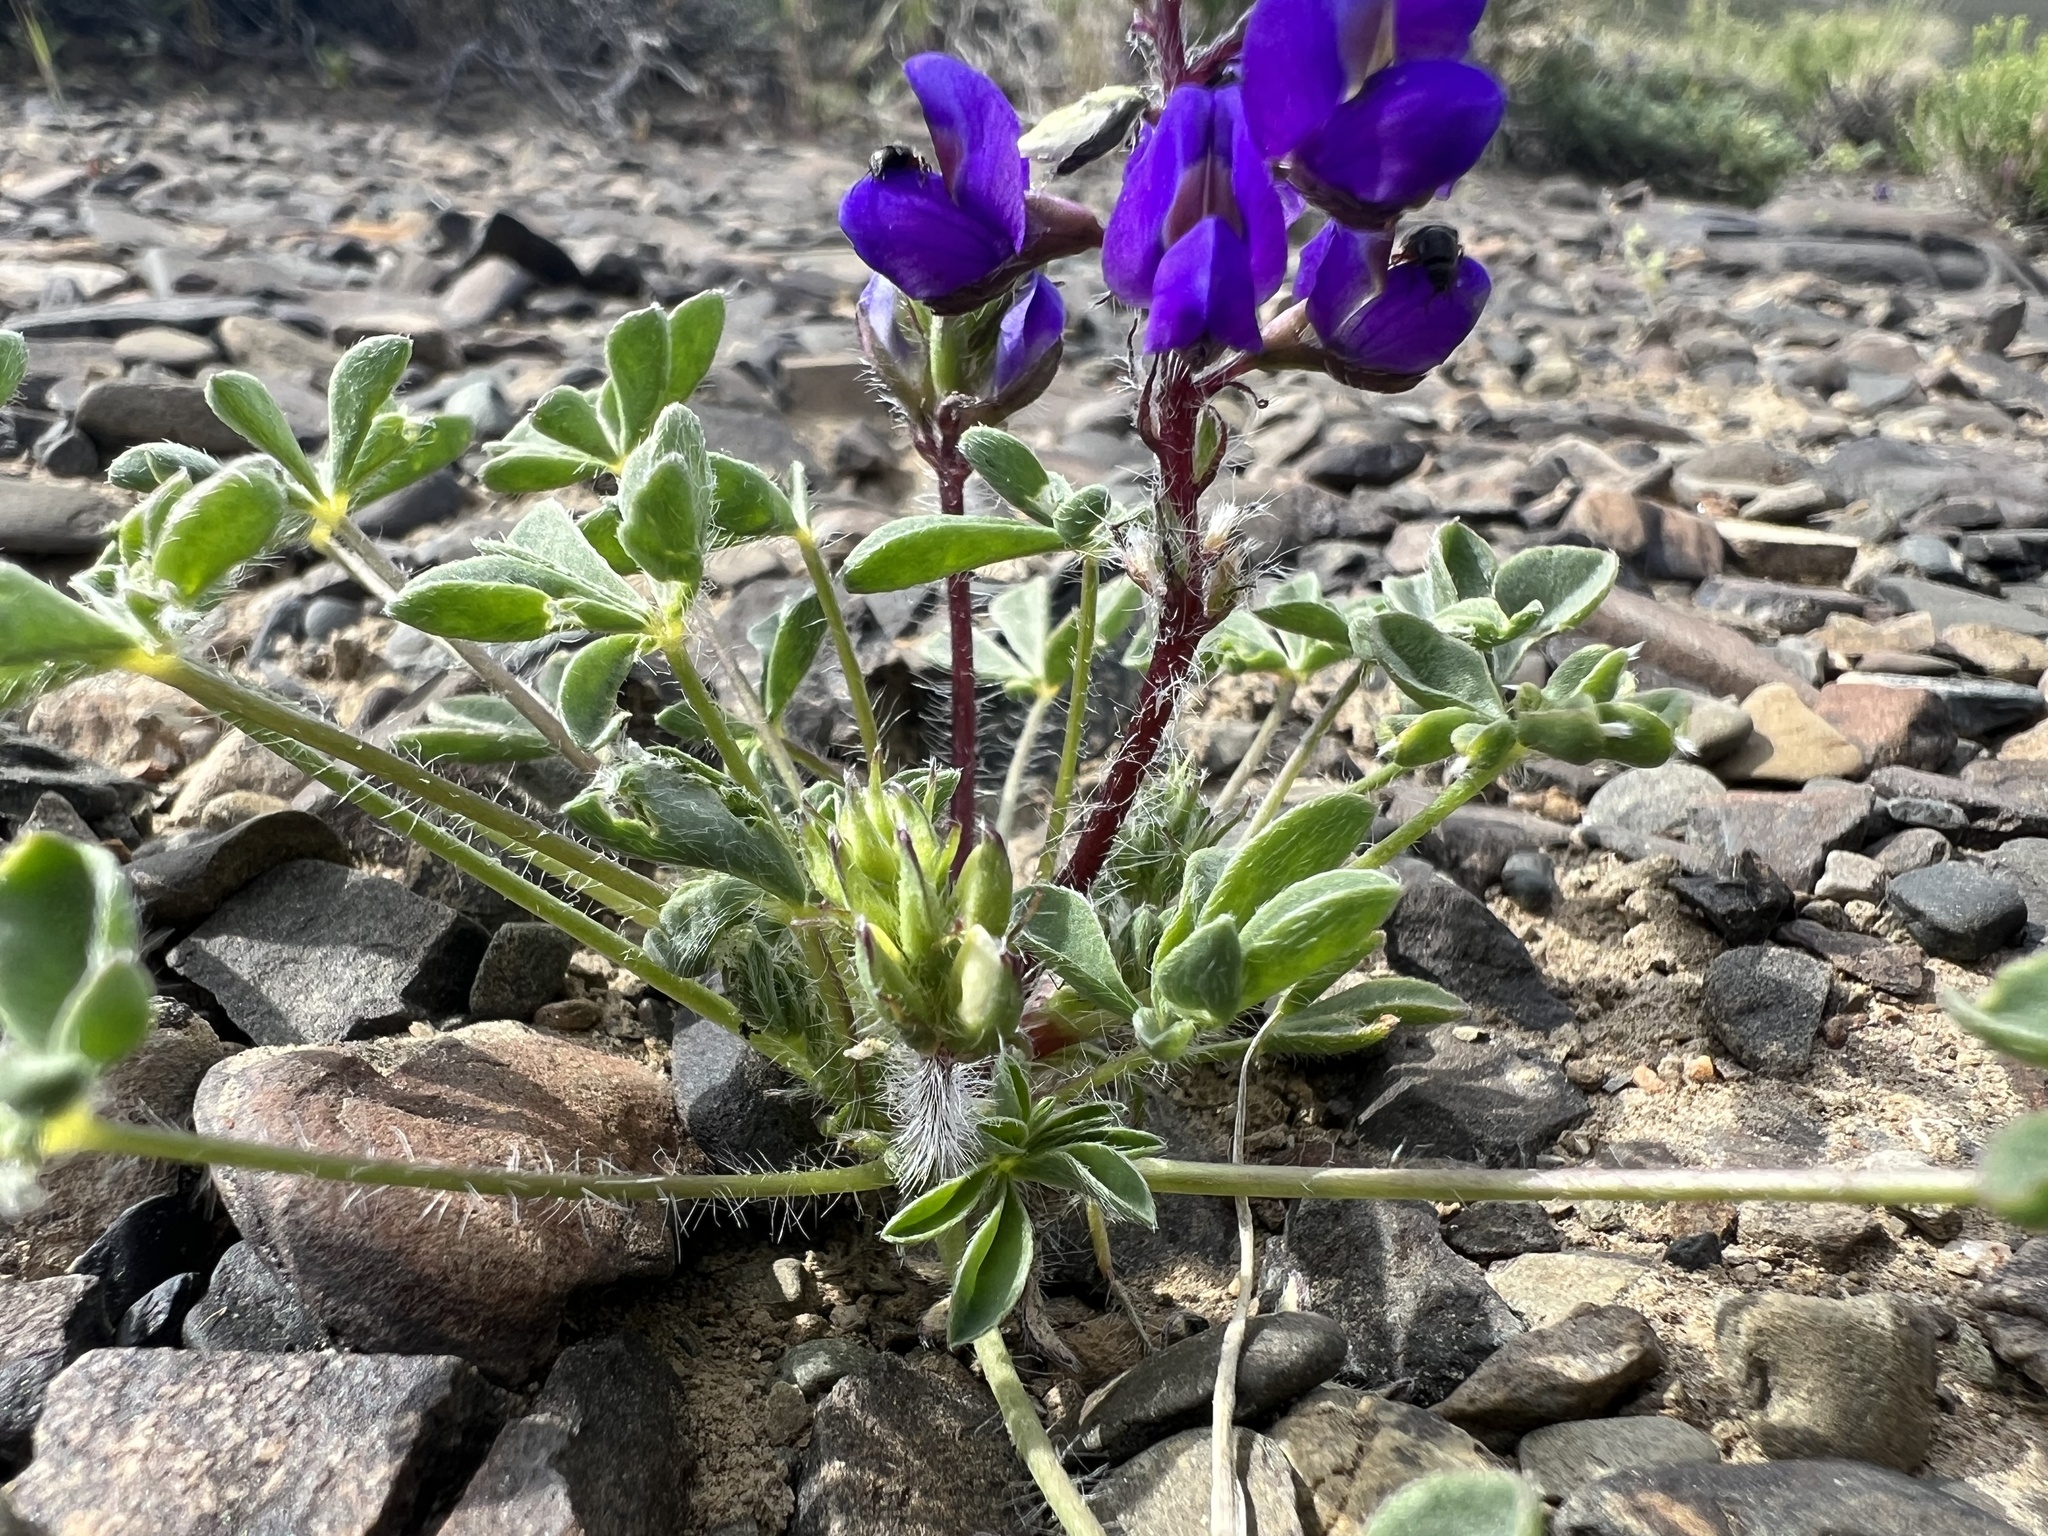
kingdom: Plantae
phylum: Tracheophyta
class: Magnoliopsida
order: Fabales
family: Fabaceae
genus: Lupinus
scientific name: Lupinus flavoculatus
